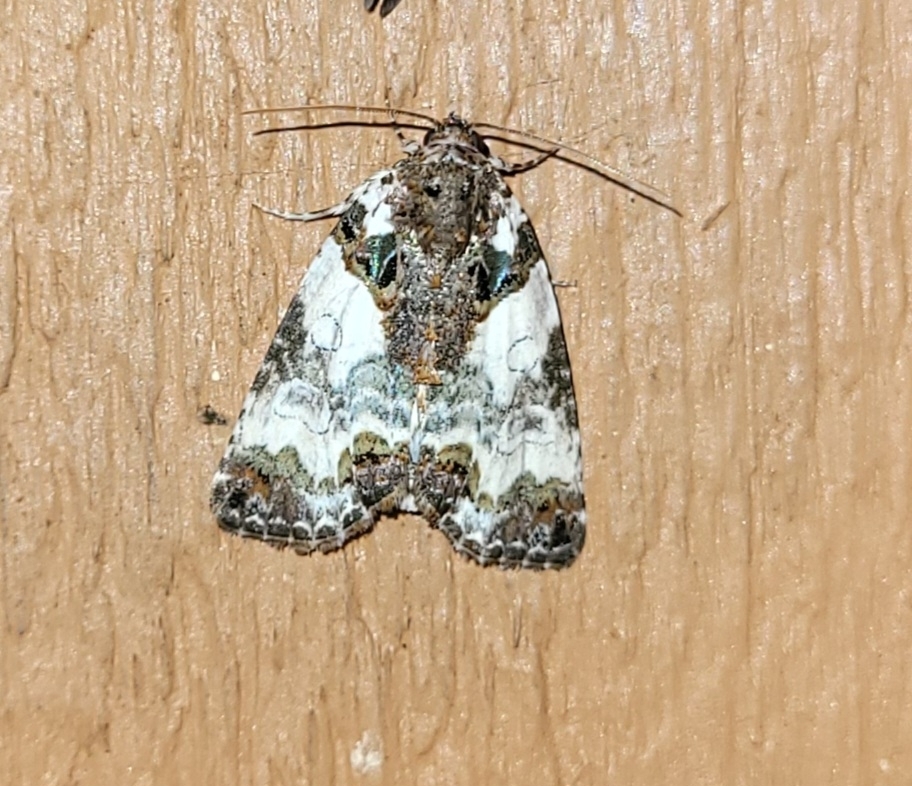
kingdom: Animalia
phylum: Arthropoda
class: Insecta
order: Lepidoptera
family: Noctuidae
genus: Cerma
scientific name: Cerma cerintha
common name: Tufted bird-dropping moth
